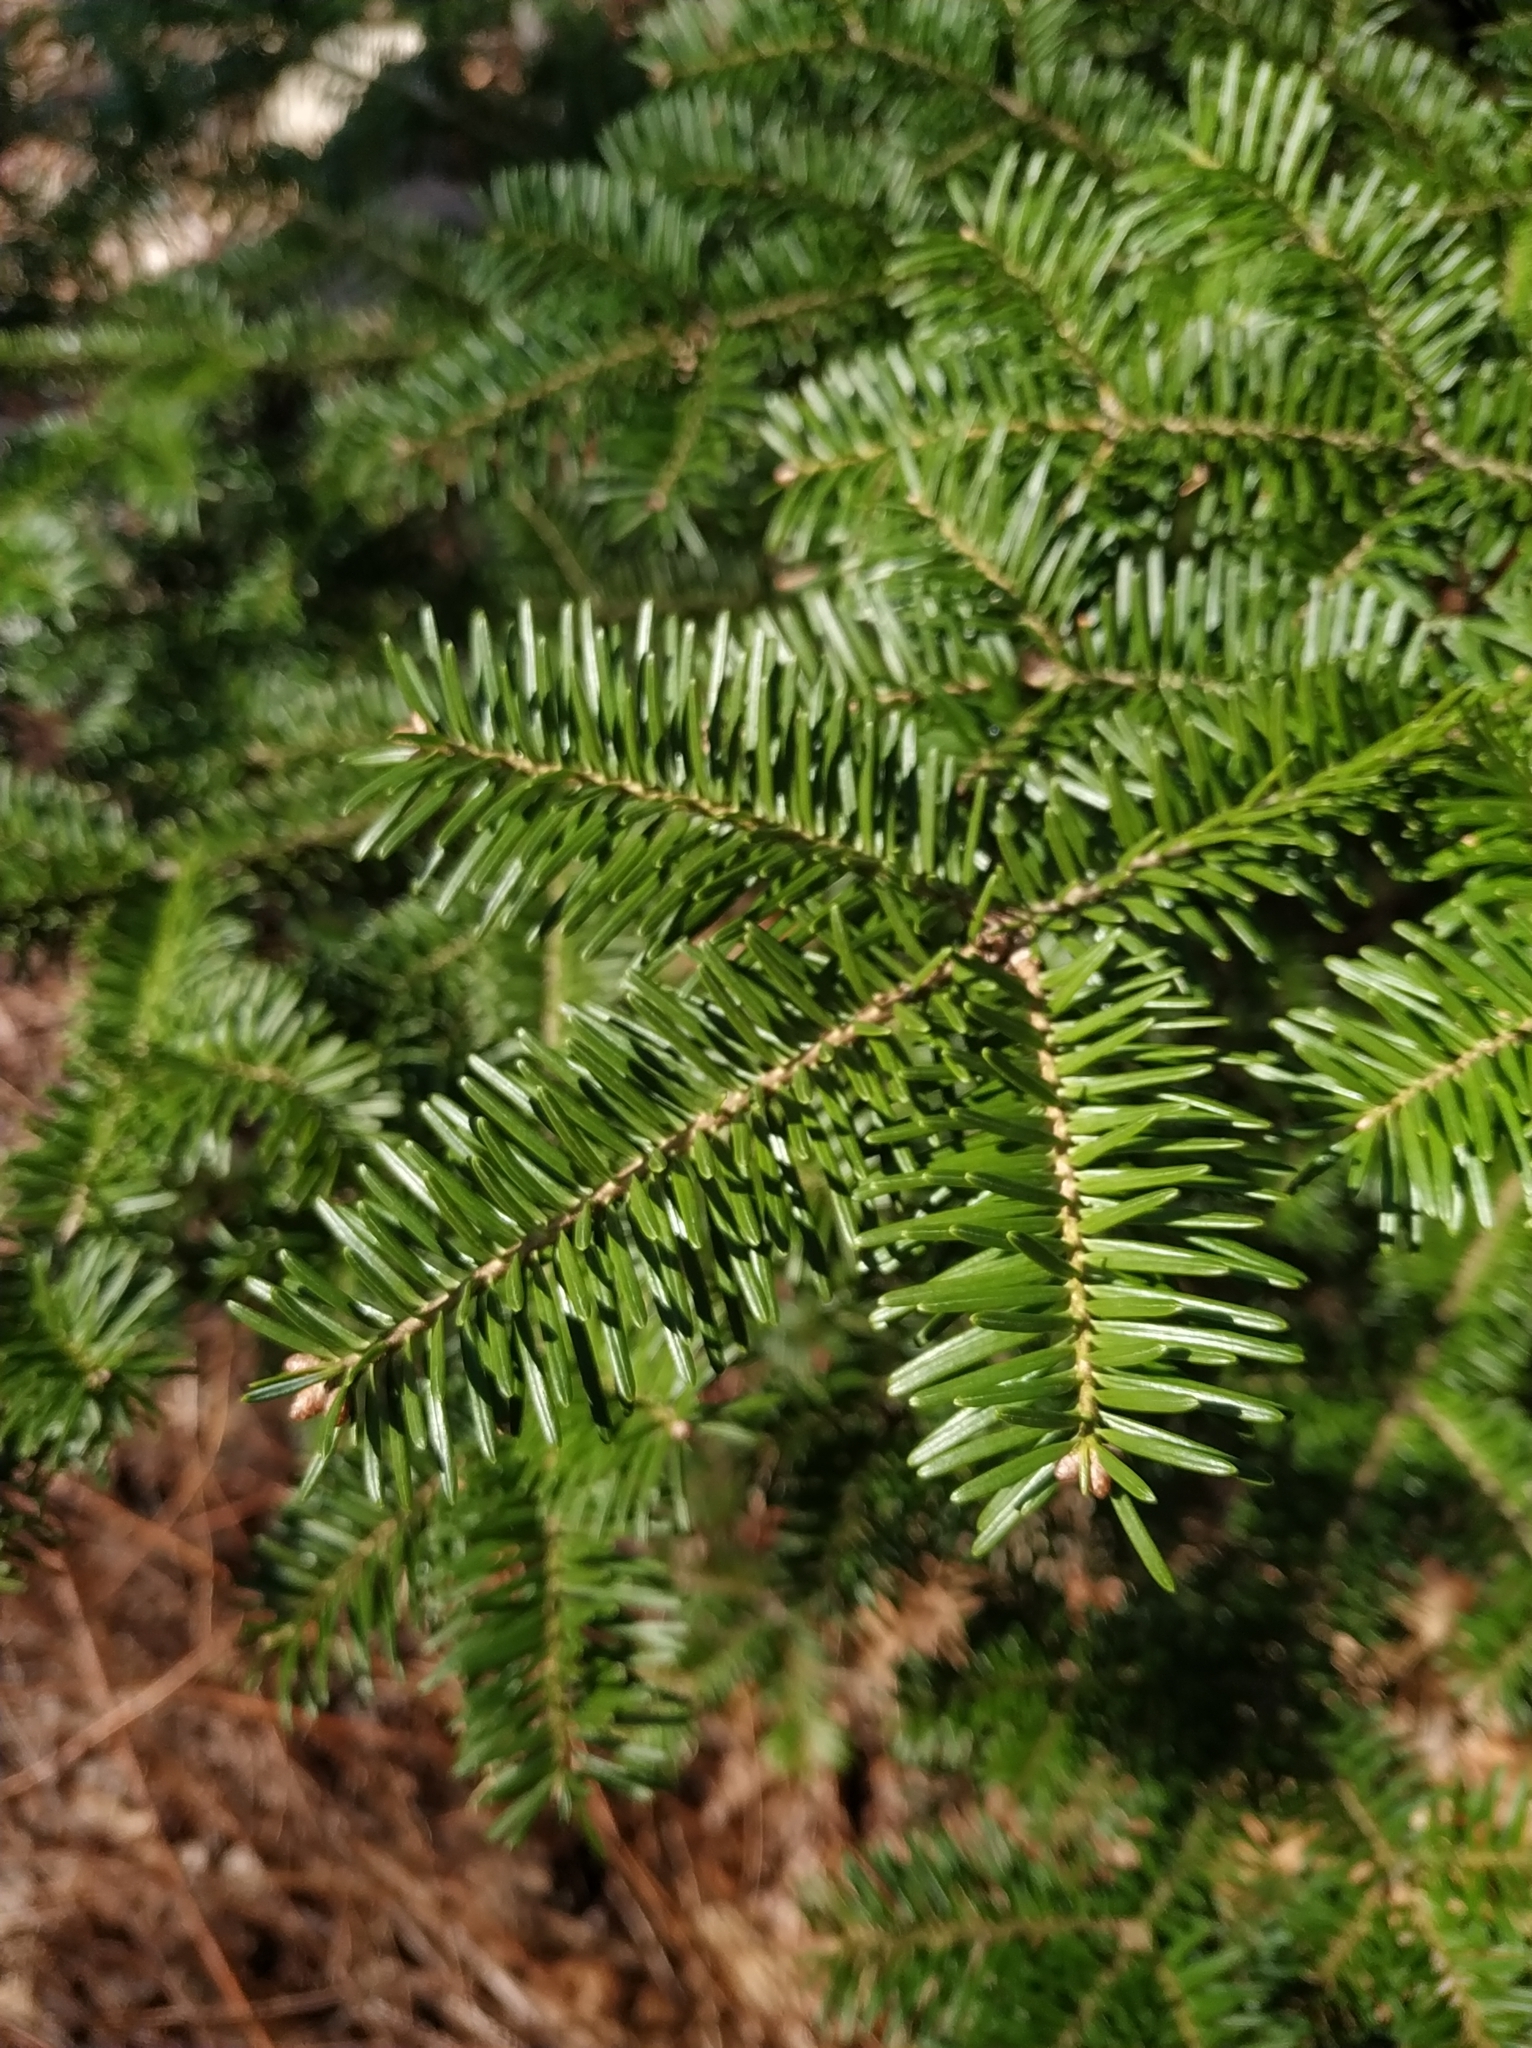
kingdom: Plantae
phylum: Tracheophyta
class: Pinopsida
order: Pinales
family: Pinaceae
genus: Abies
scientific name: Abies balsamea
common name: Balsam fir
